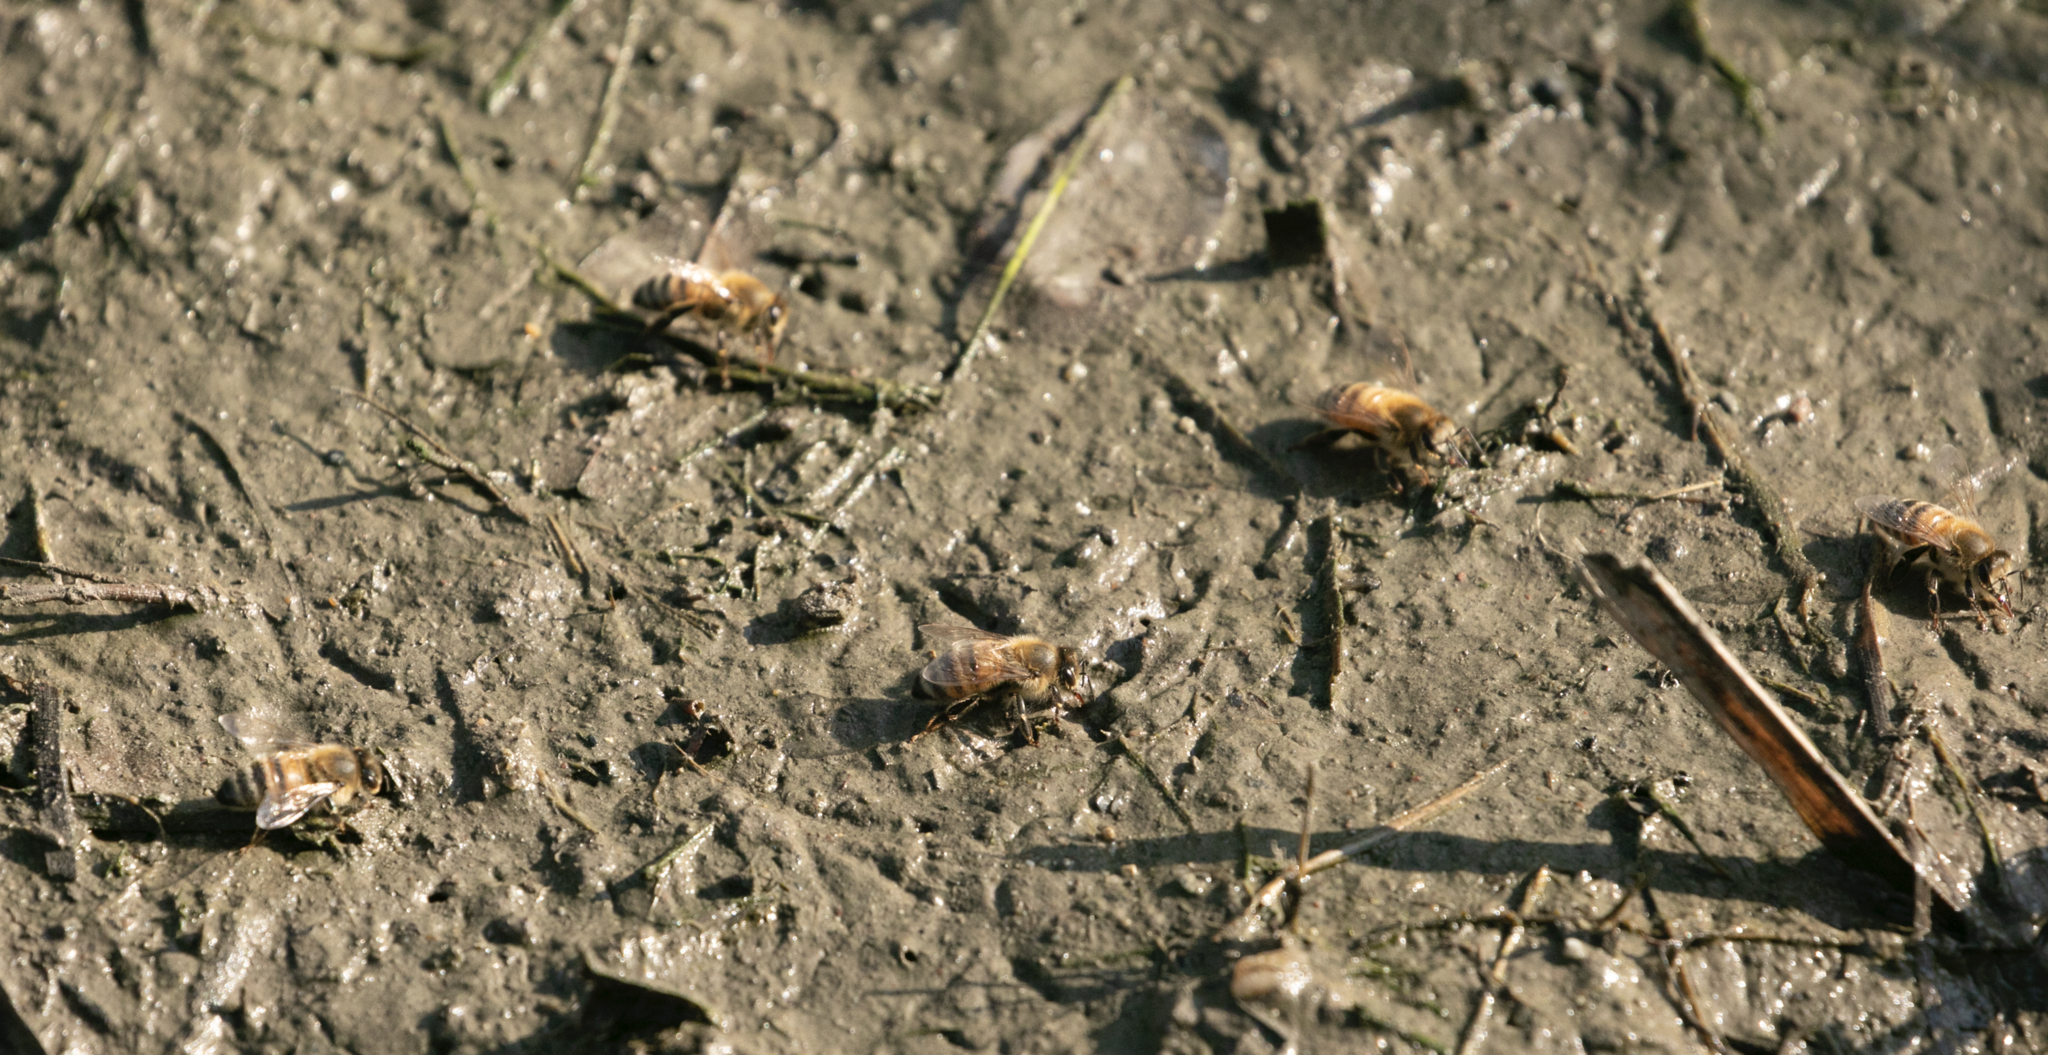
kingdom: Animalia
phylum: Arthropoda
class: Insecta
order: Hymenoptera
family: Apidae
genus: Apis
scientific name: Apis mellifera
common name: Honey bee
